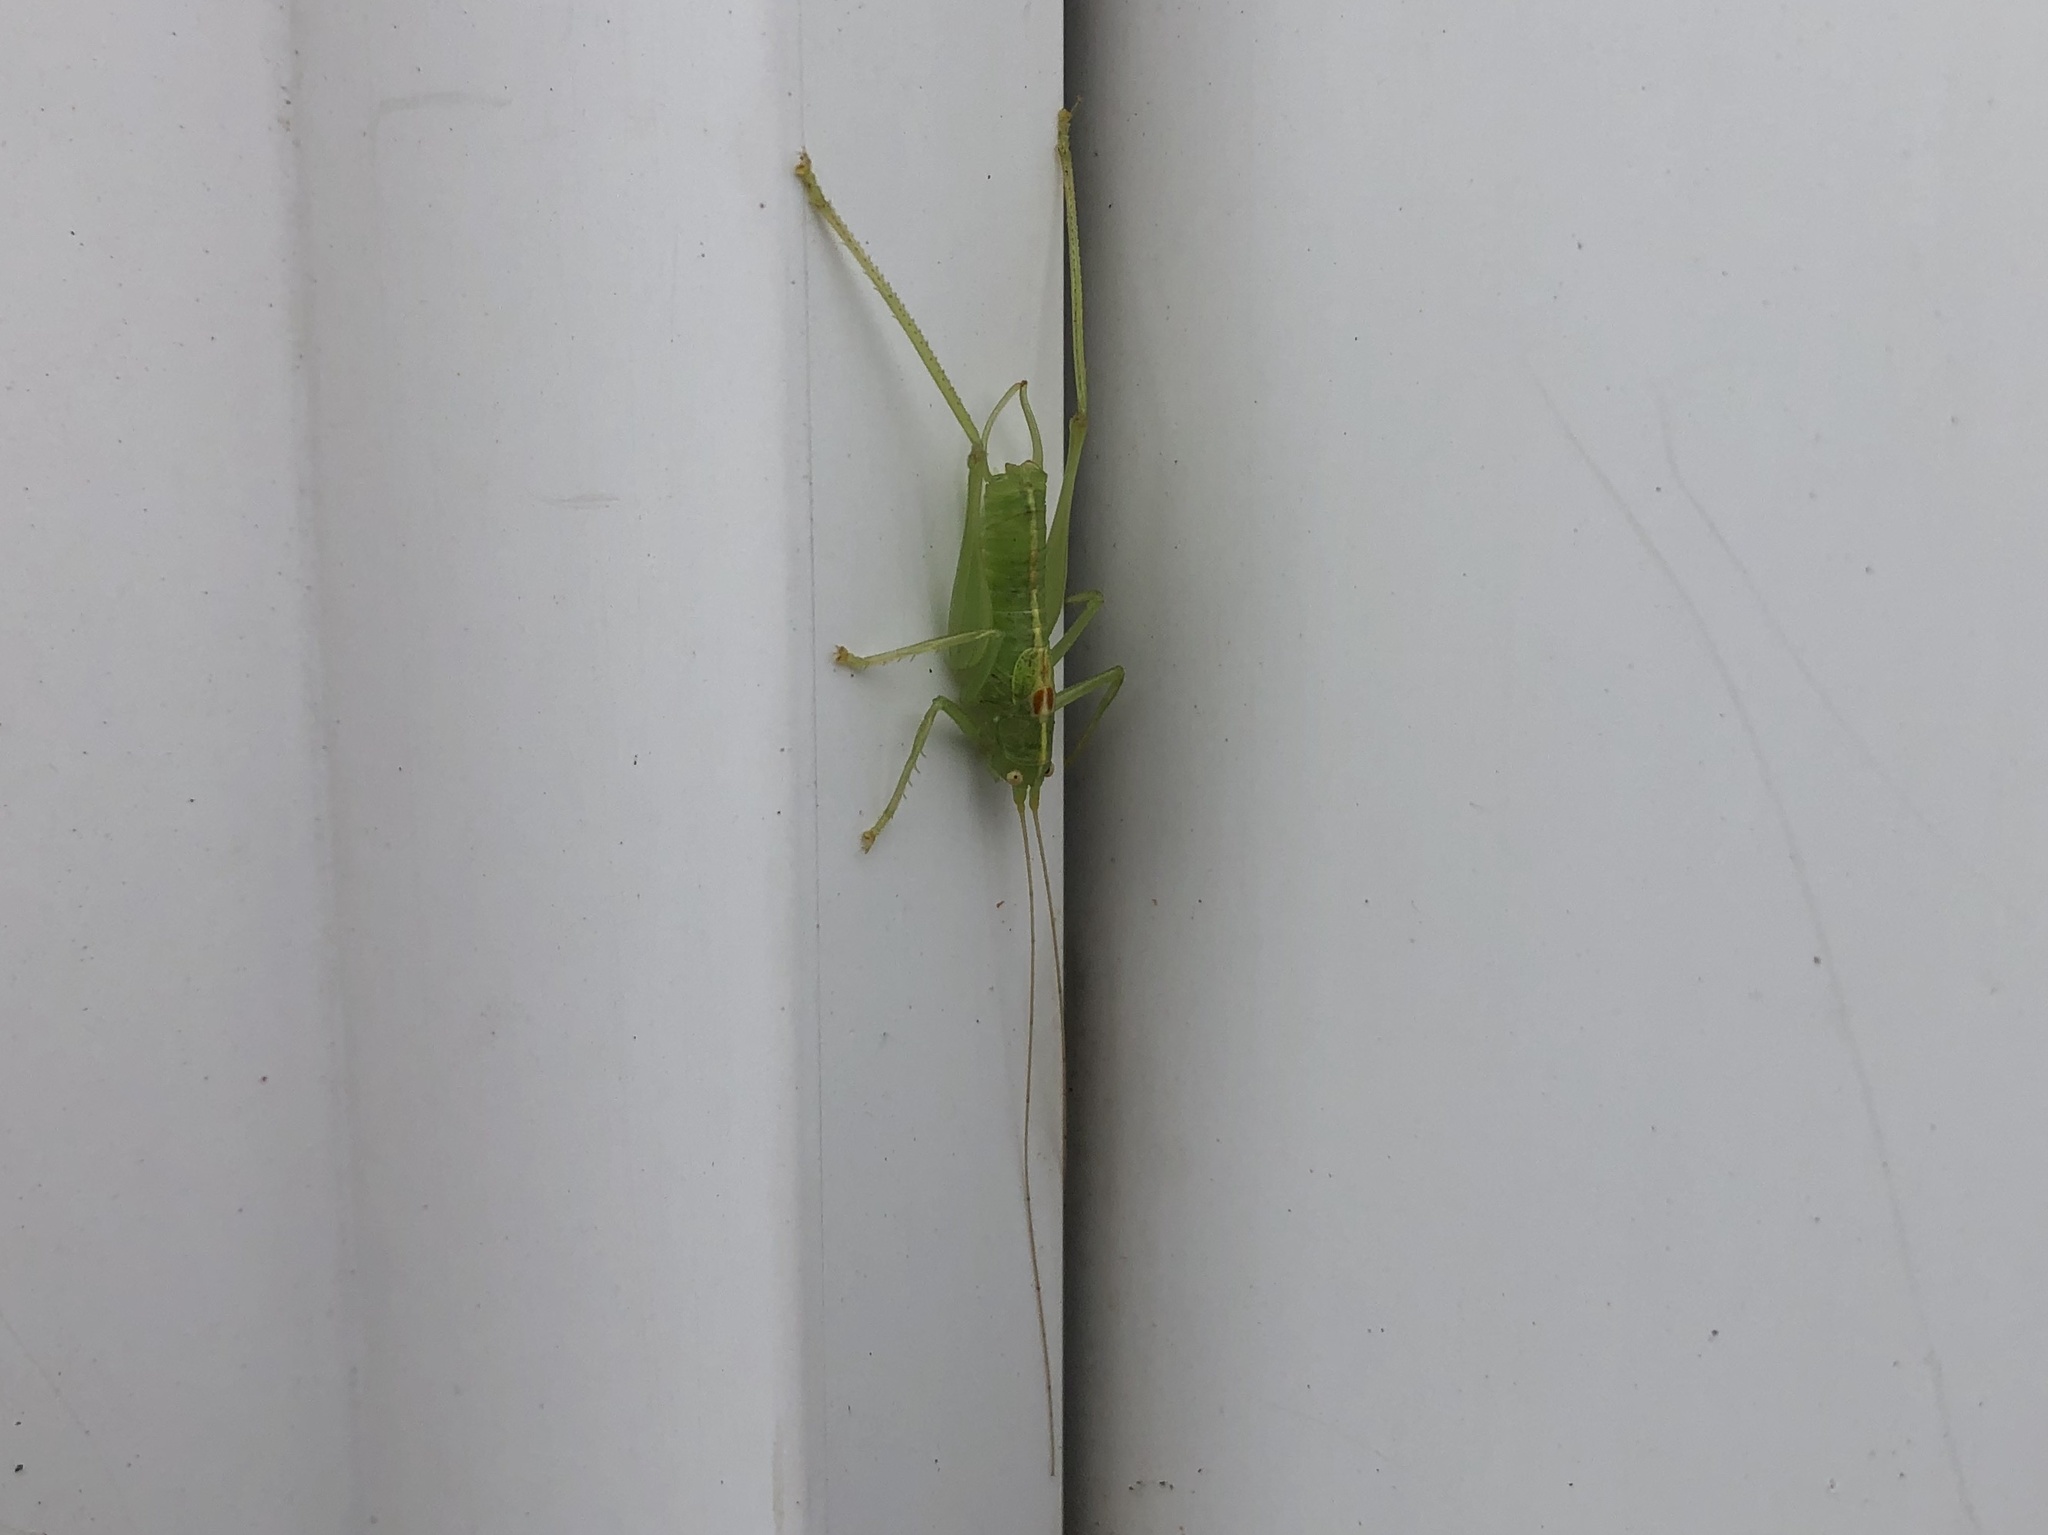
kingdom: Animalia
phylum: Arthropoda
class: Insecta
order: Orthoptera
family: Tettigoniidae
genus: Meconema
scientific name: Meconema meridionale
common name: Southern oak bush-cricket
